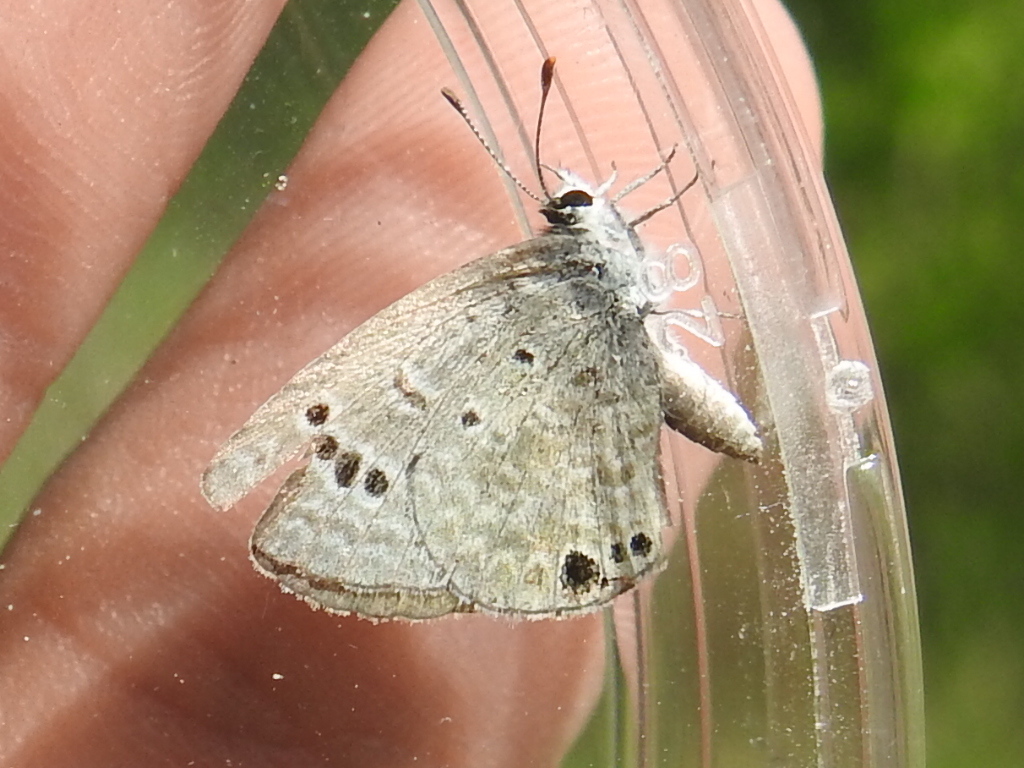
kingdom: Animalia
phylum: Arthropoda
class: Insecta
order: Lepidoptera
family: Lycaenidae
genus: Echinargus
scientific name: Echinargus isola
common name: Reakirt's blue
